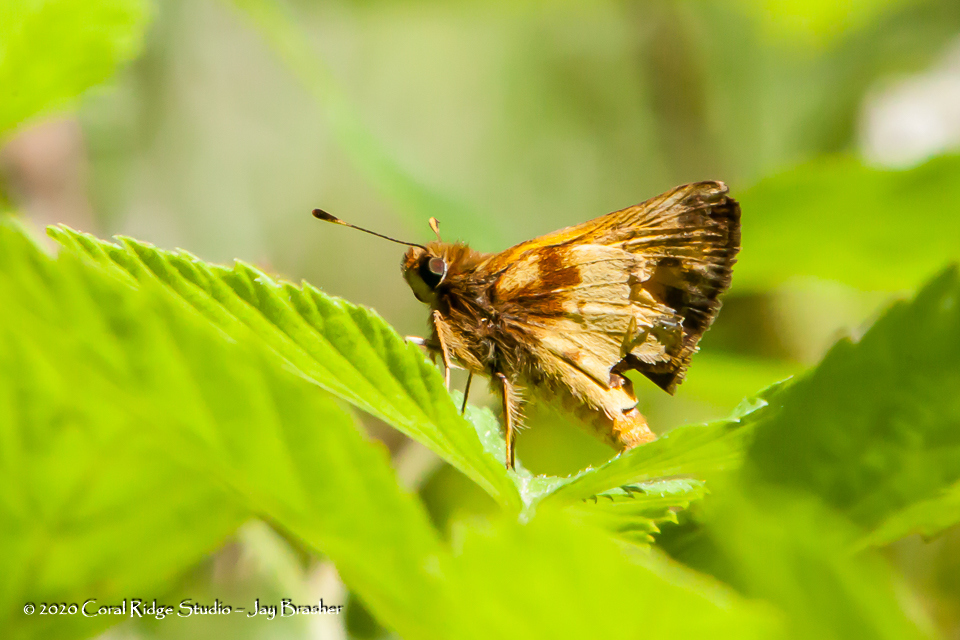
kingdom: Animalia
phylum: Arthropoda
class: Insecta
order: Lepidoptera
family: Hesperiidae
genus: Lon
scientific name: Lon zabulon
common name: Zabulon skipper
